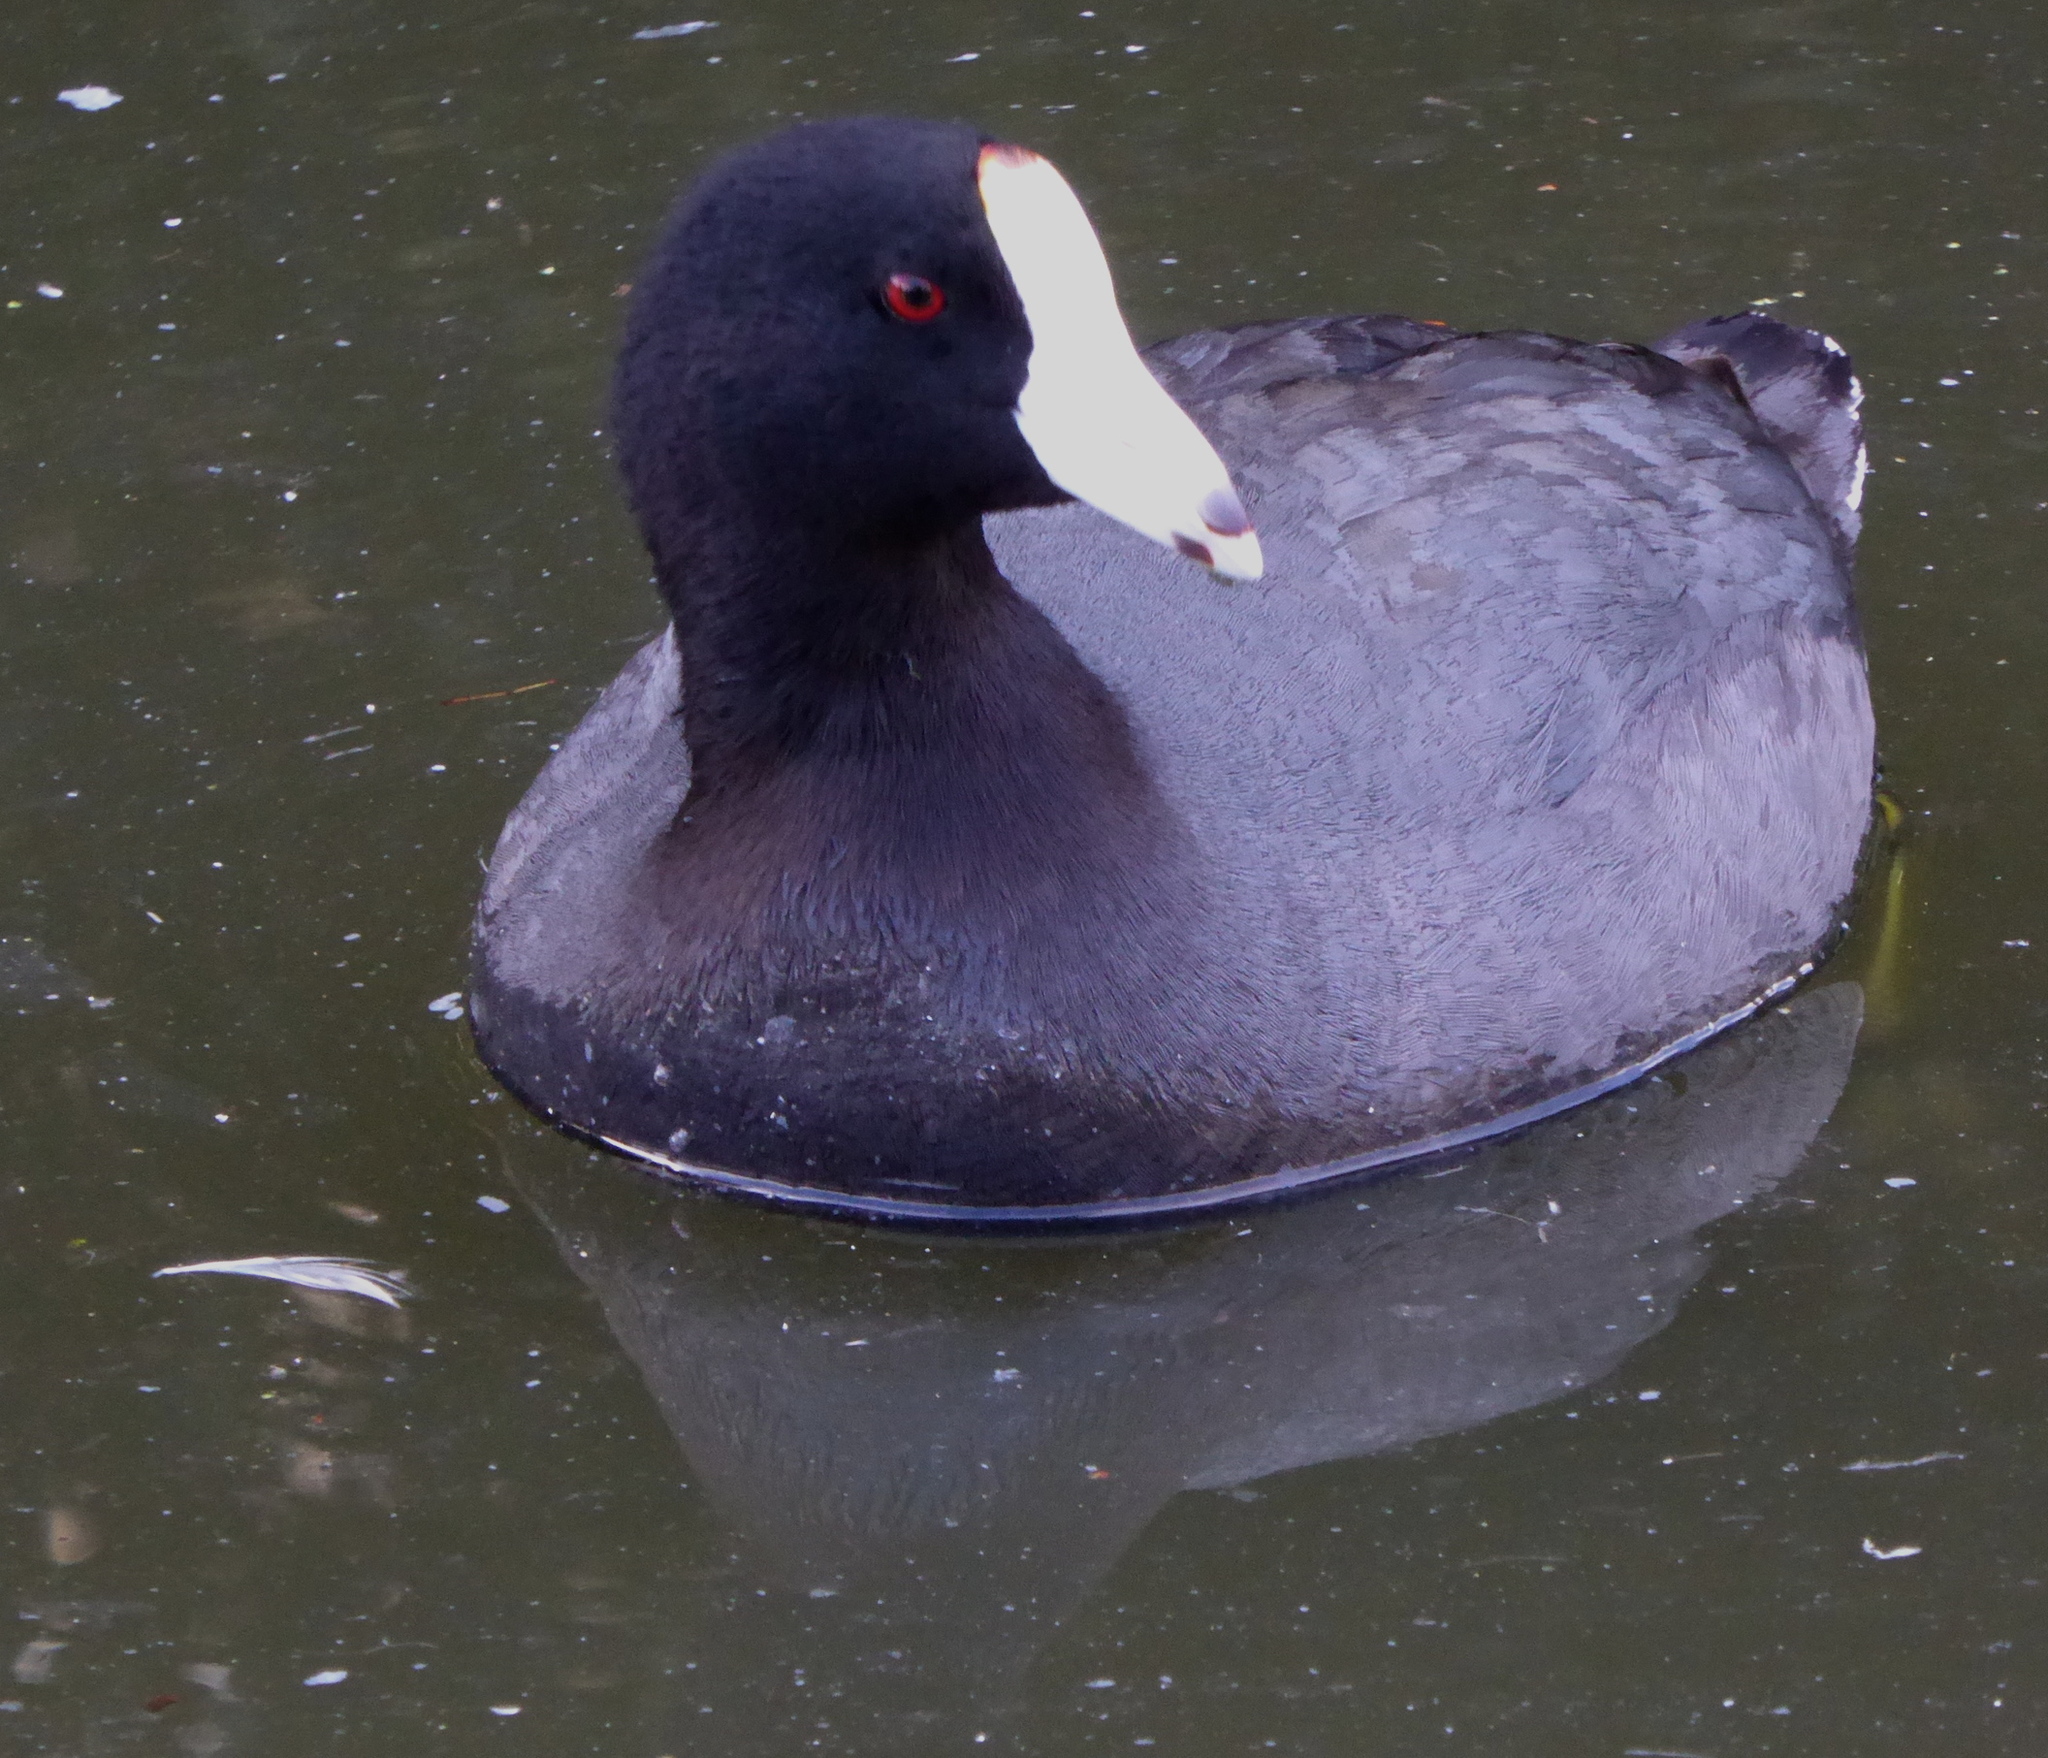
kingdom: Animalia
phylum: Chordata
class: Aves
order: Gruiformes
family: Rallidae
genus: Fulica
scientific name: Fulica americana
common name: American coot
